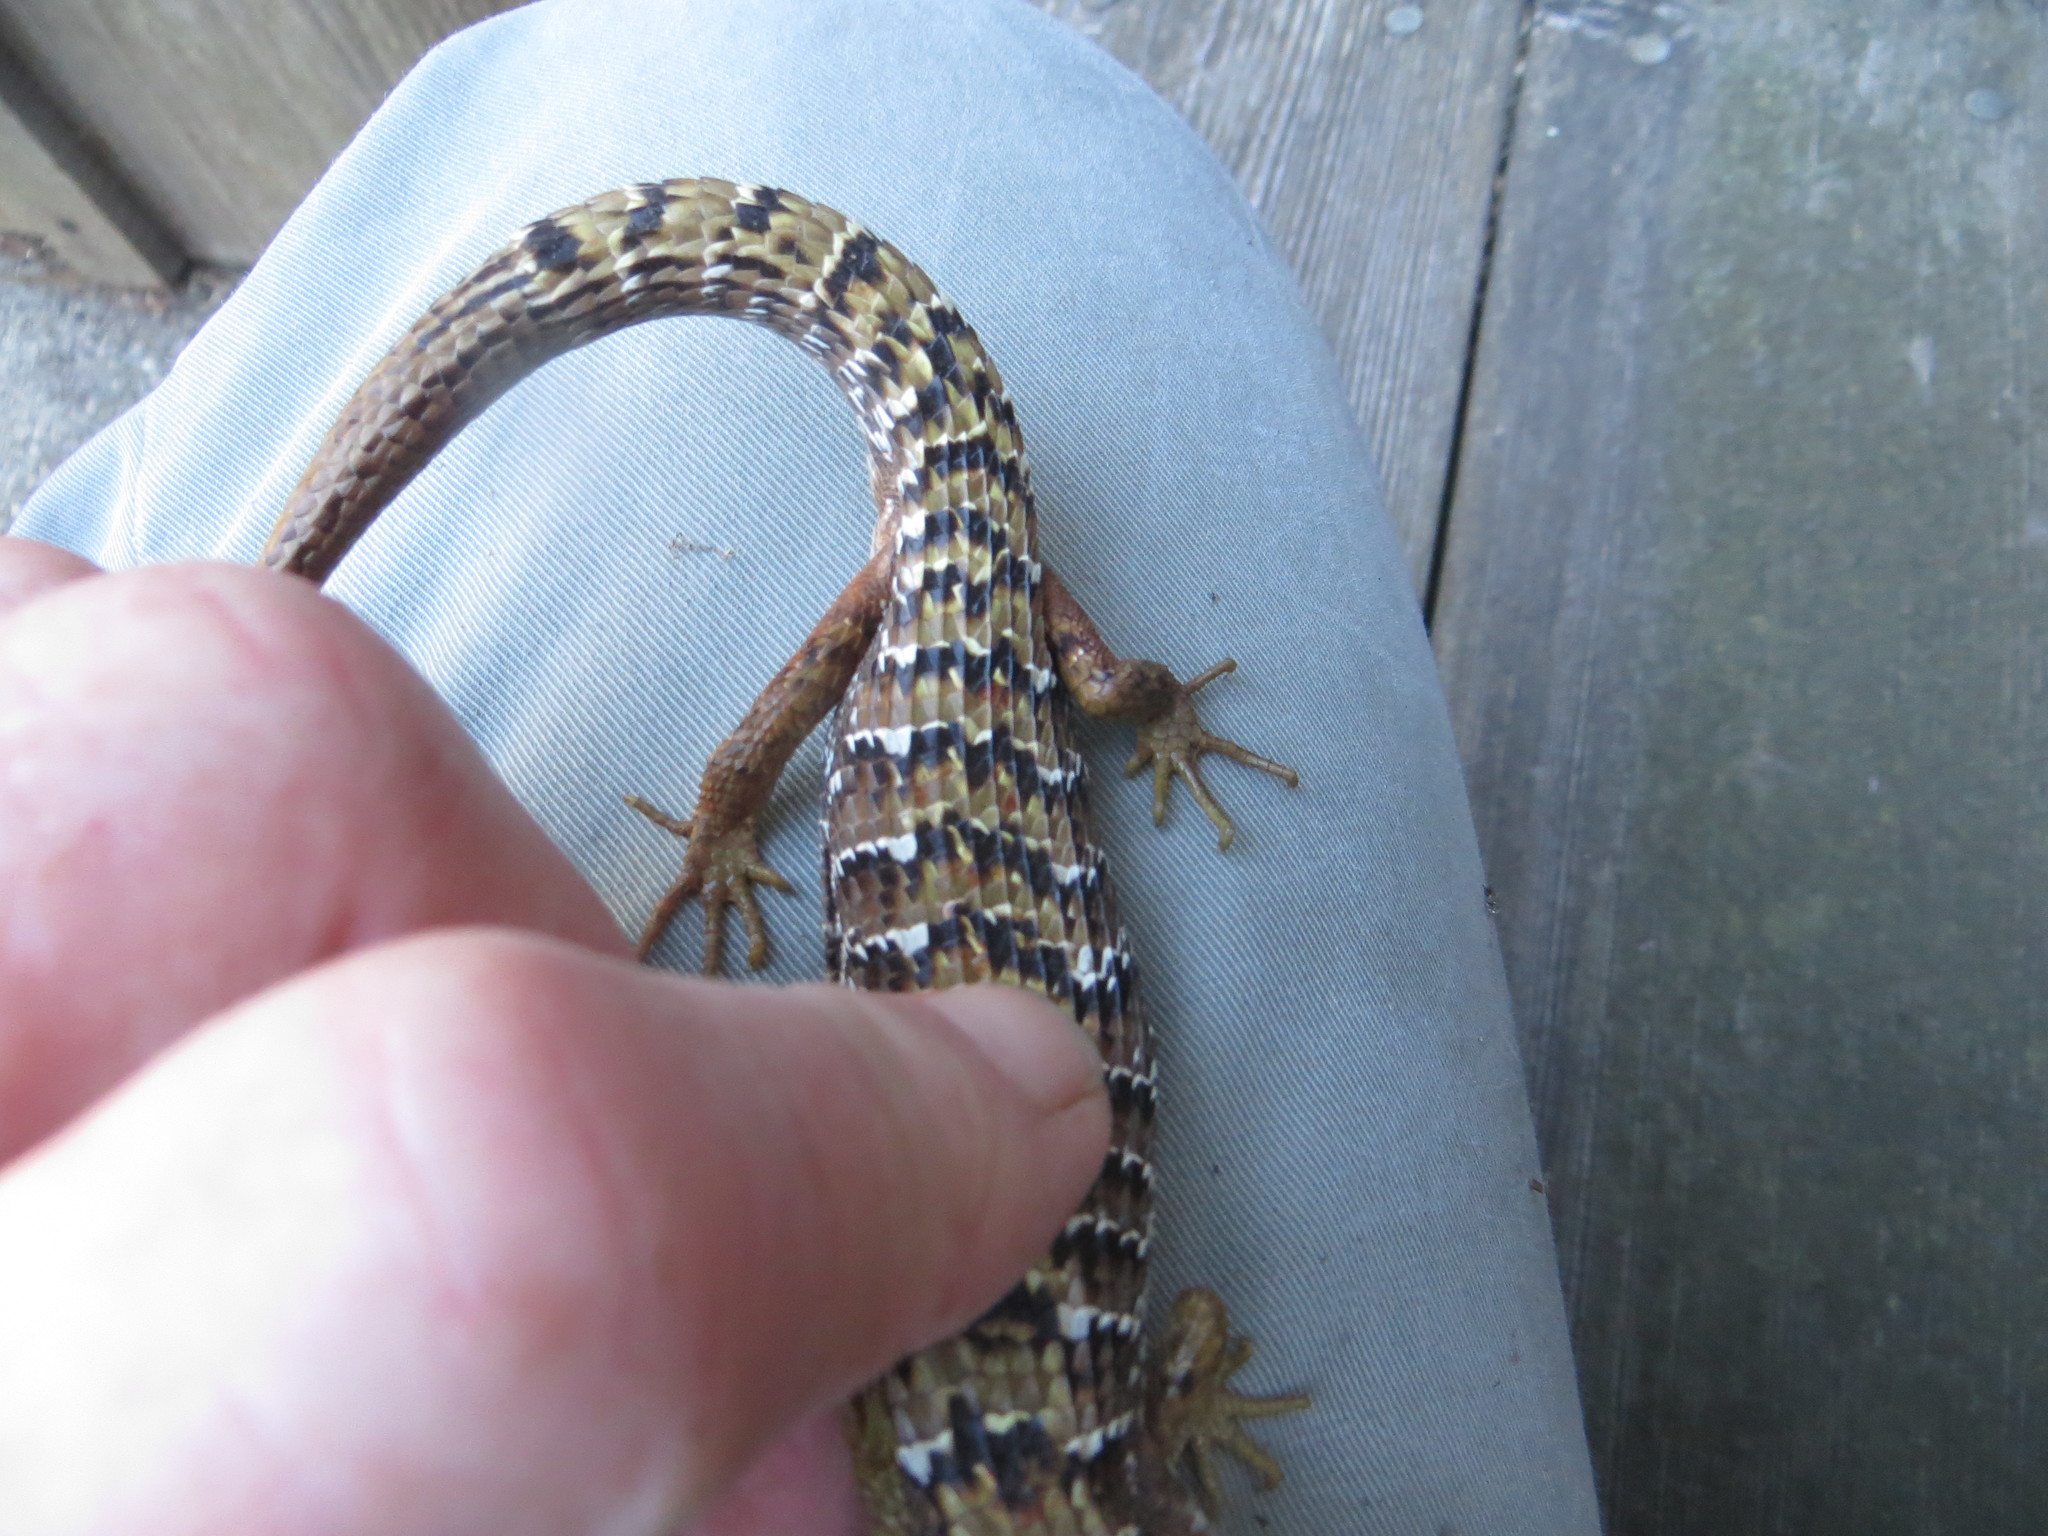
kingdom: Animalia
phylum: Chordata
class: Squamata
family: Anguidae
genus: Elgaria
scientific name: Elgaria multicarinata
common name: Southern alligator lizard
